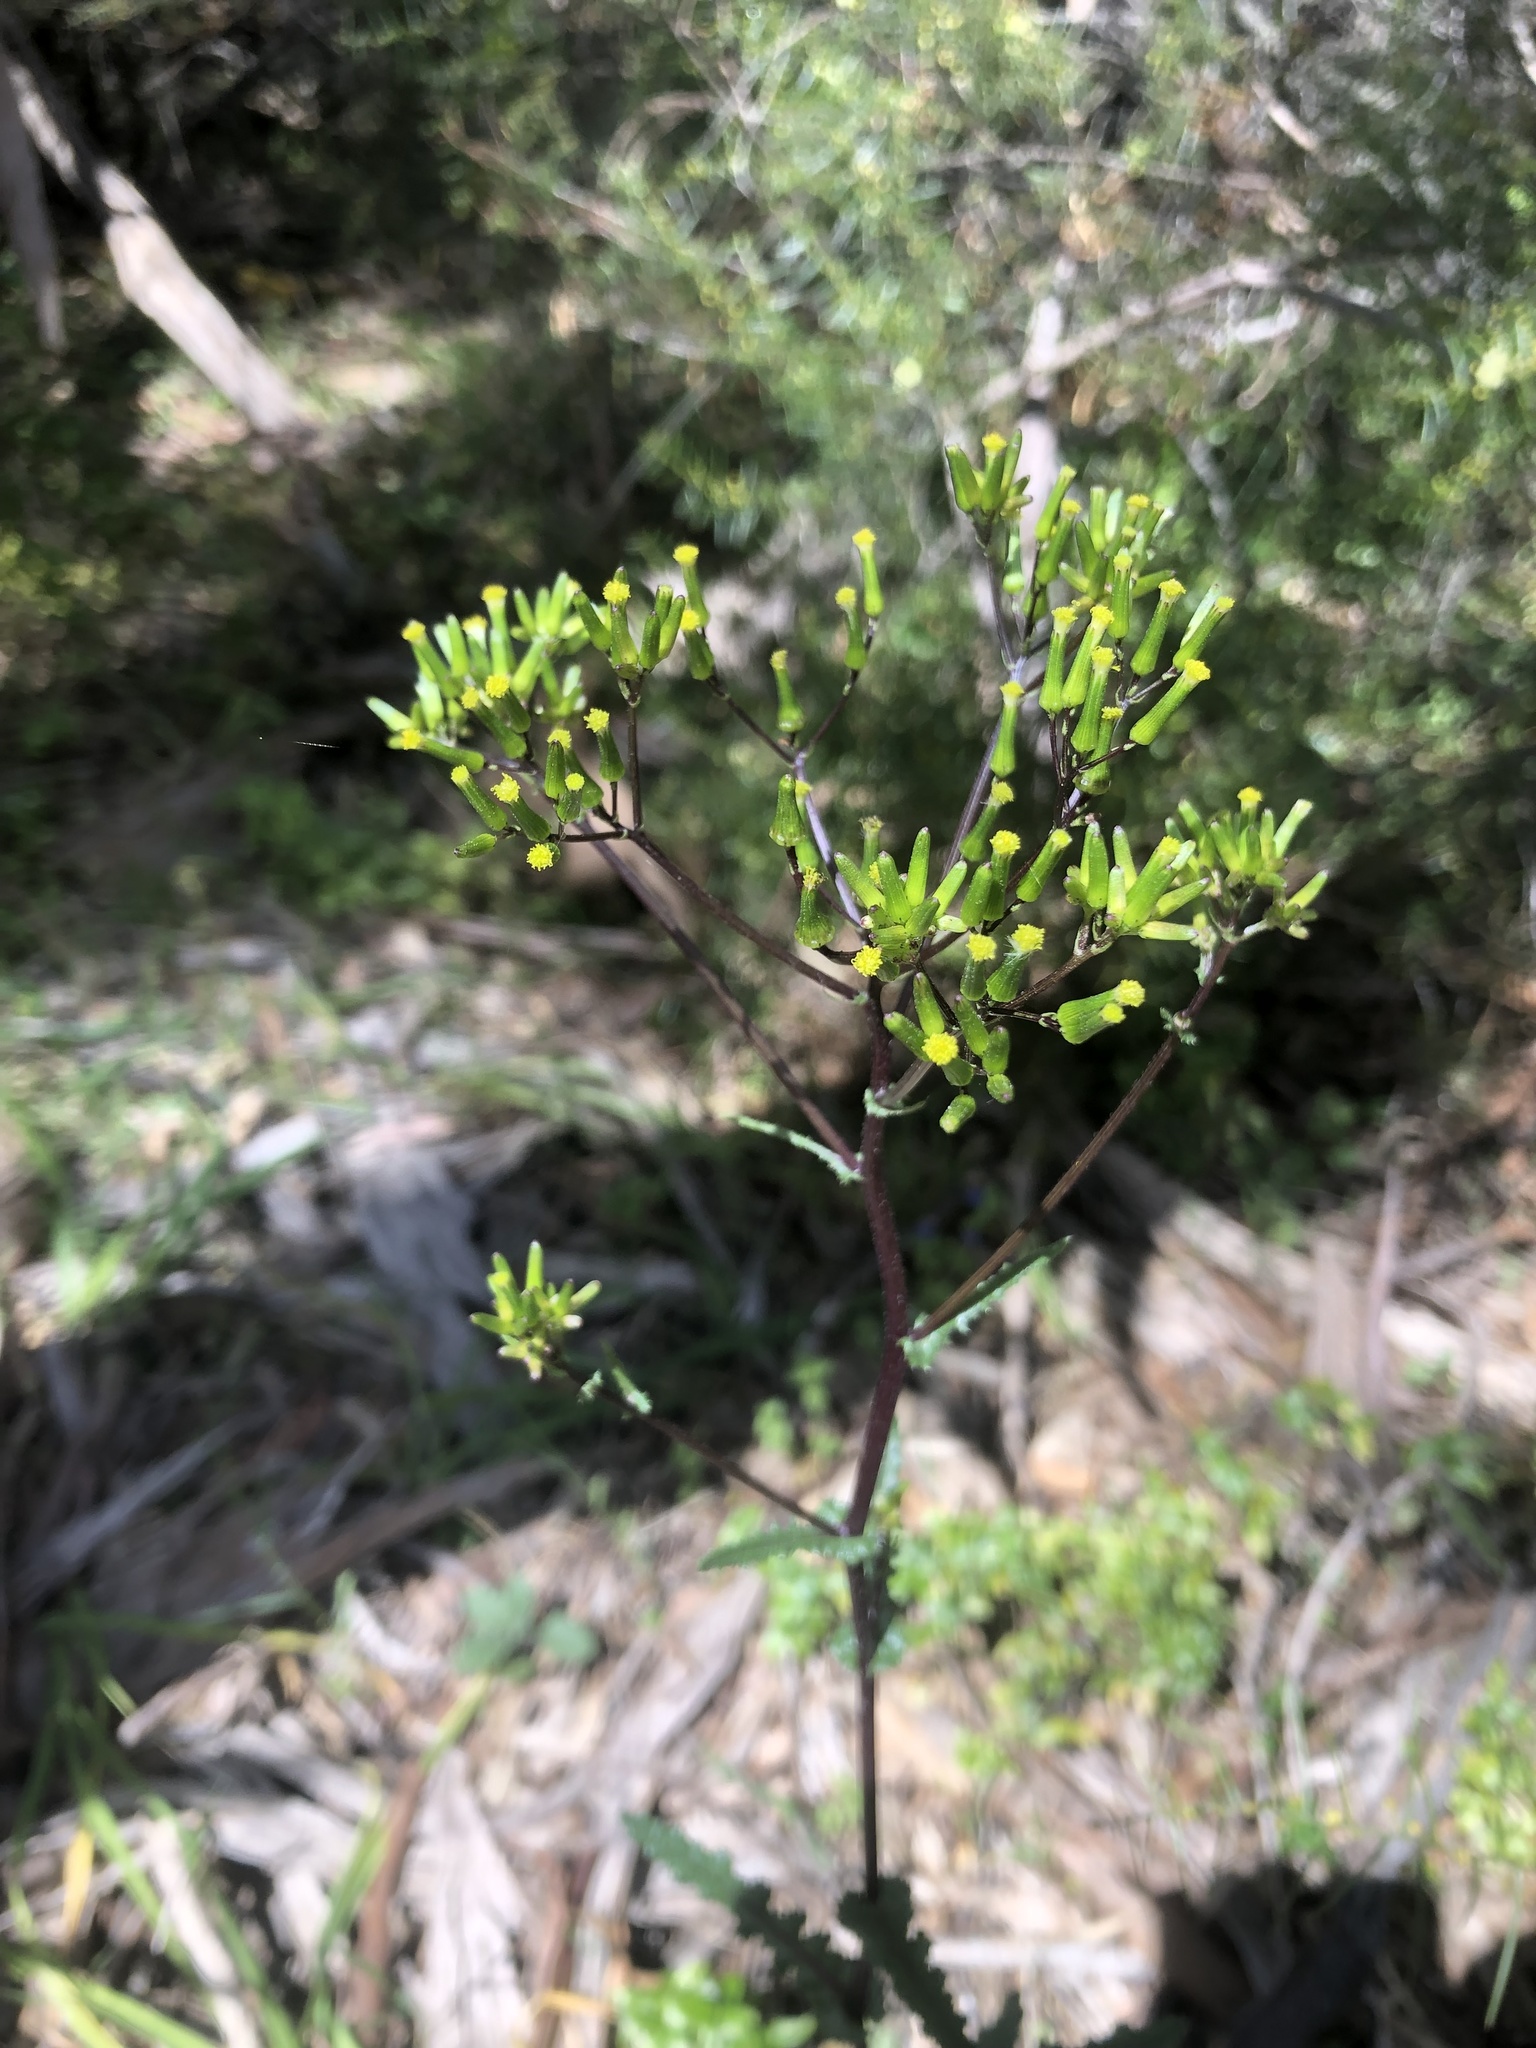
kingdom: Plantae
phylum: Tracheophyta
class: Magnoliopsida
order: Asterales
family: Asteraceae
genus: Senecio
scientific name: Senecio picridioides
